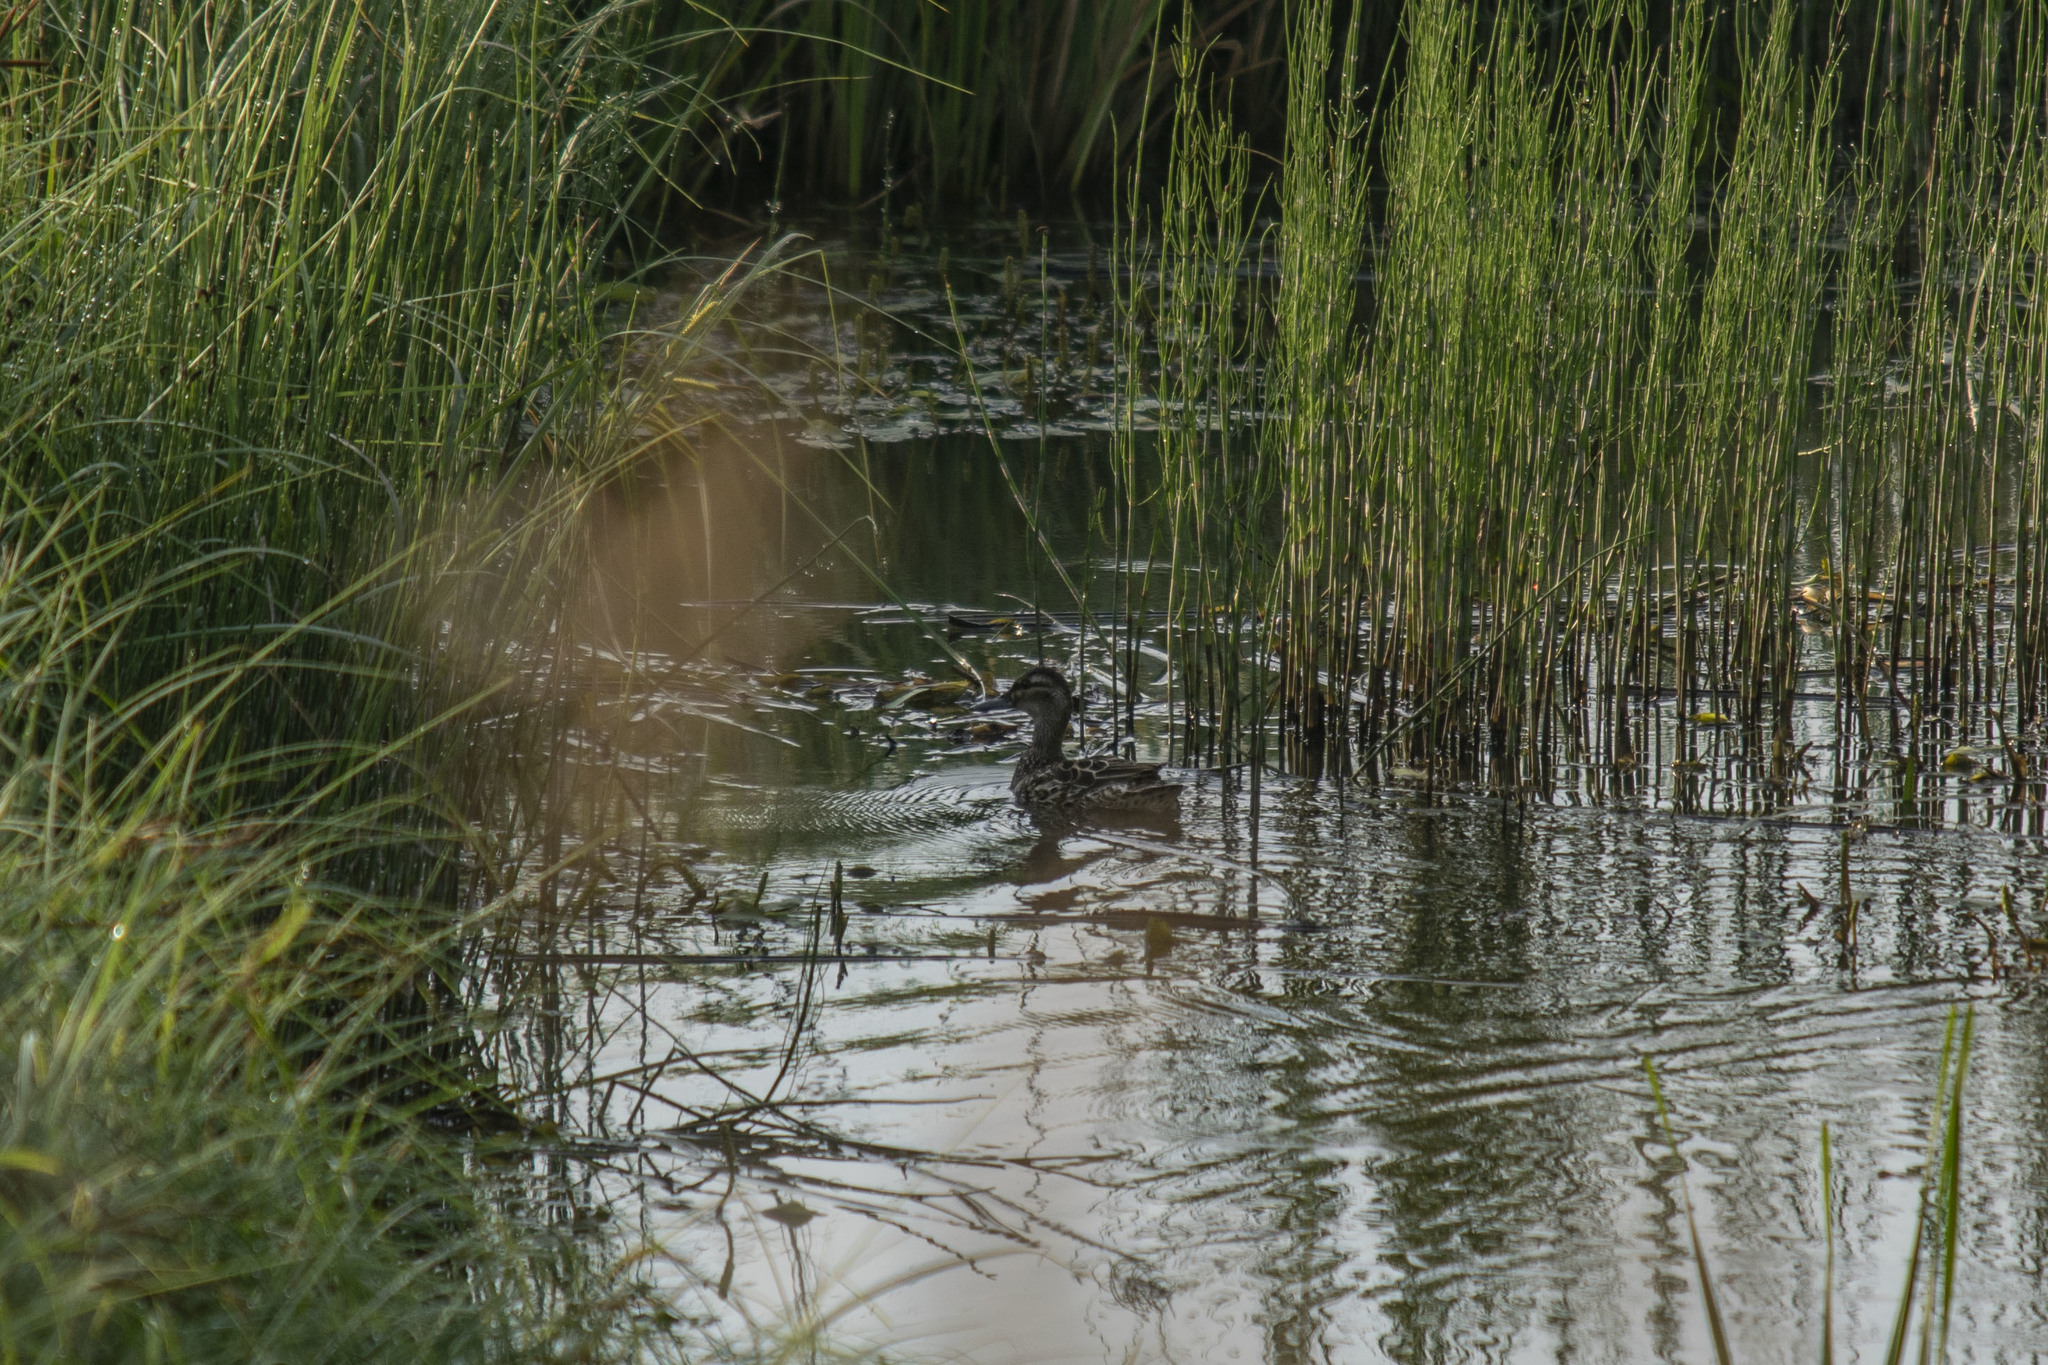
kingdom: Animalia
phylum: Chordata
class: Aves
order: Anseriformes
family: Anatidae
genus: Spatula
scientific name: Spatula querquedula
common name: Garganey
